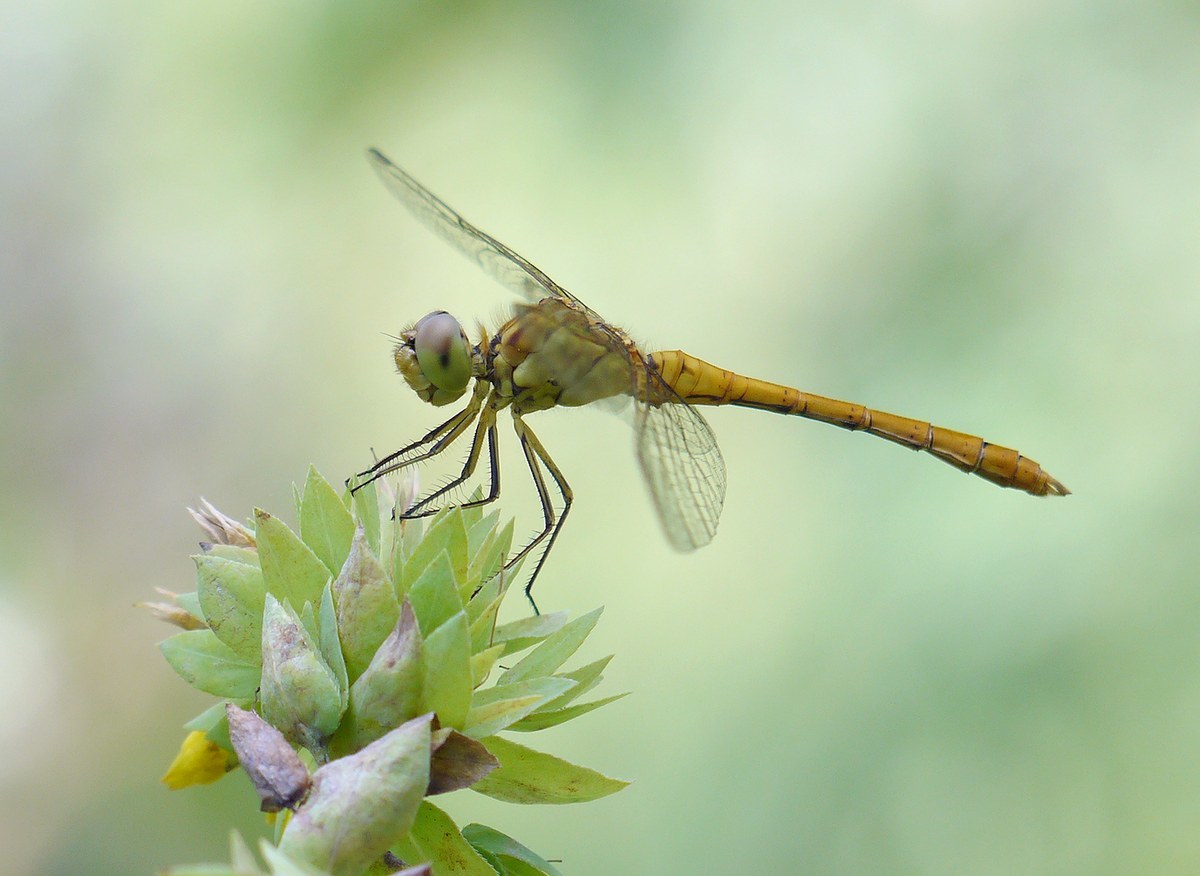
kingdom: Animalia
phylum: Arthropoda
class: Insecta
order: Odonata
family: Libellulidae
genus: Sympetrum
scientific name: Sympetrum meridionale
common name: Southern darter
